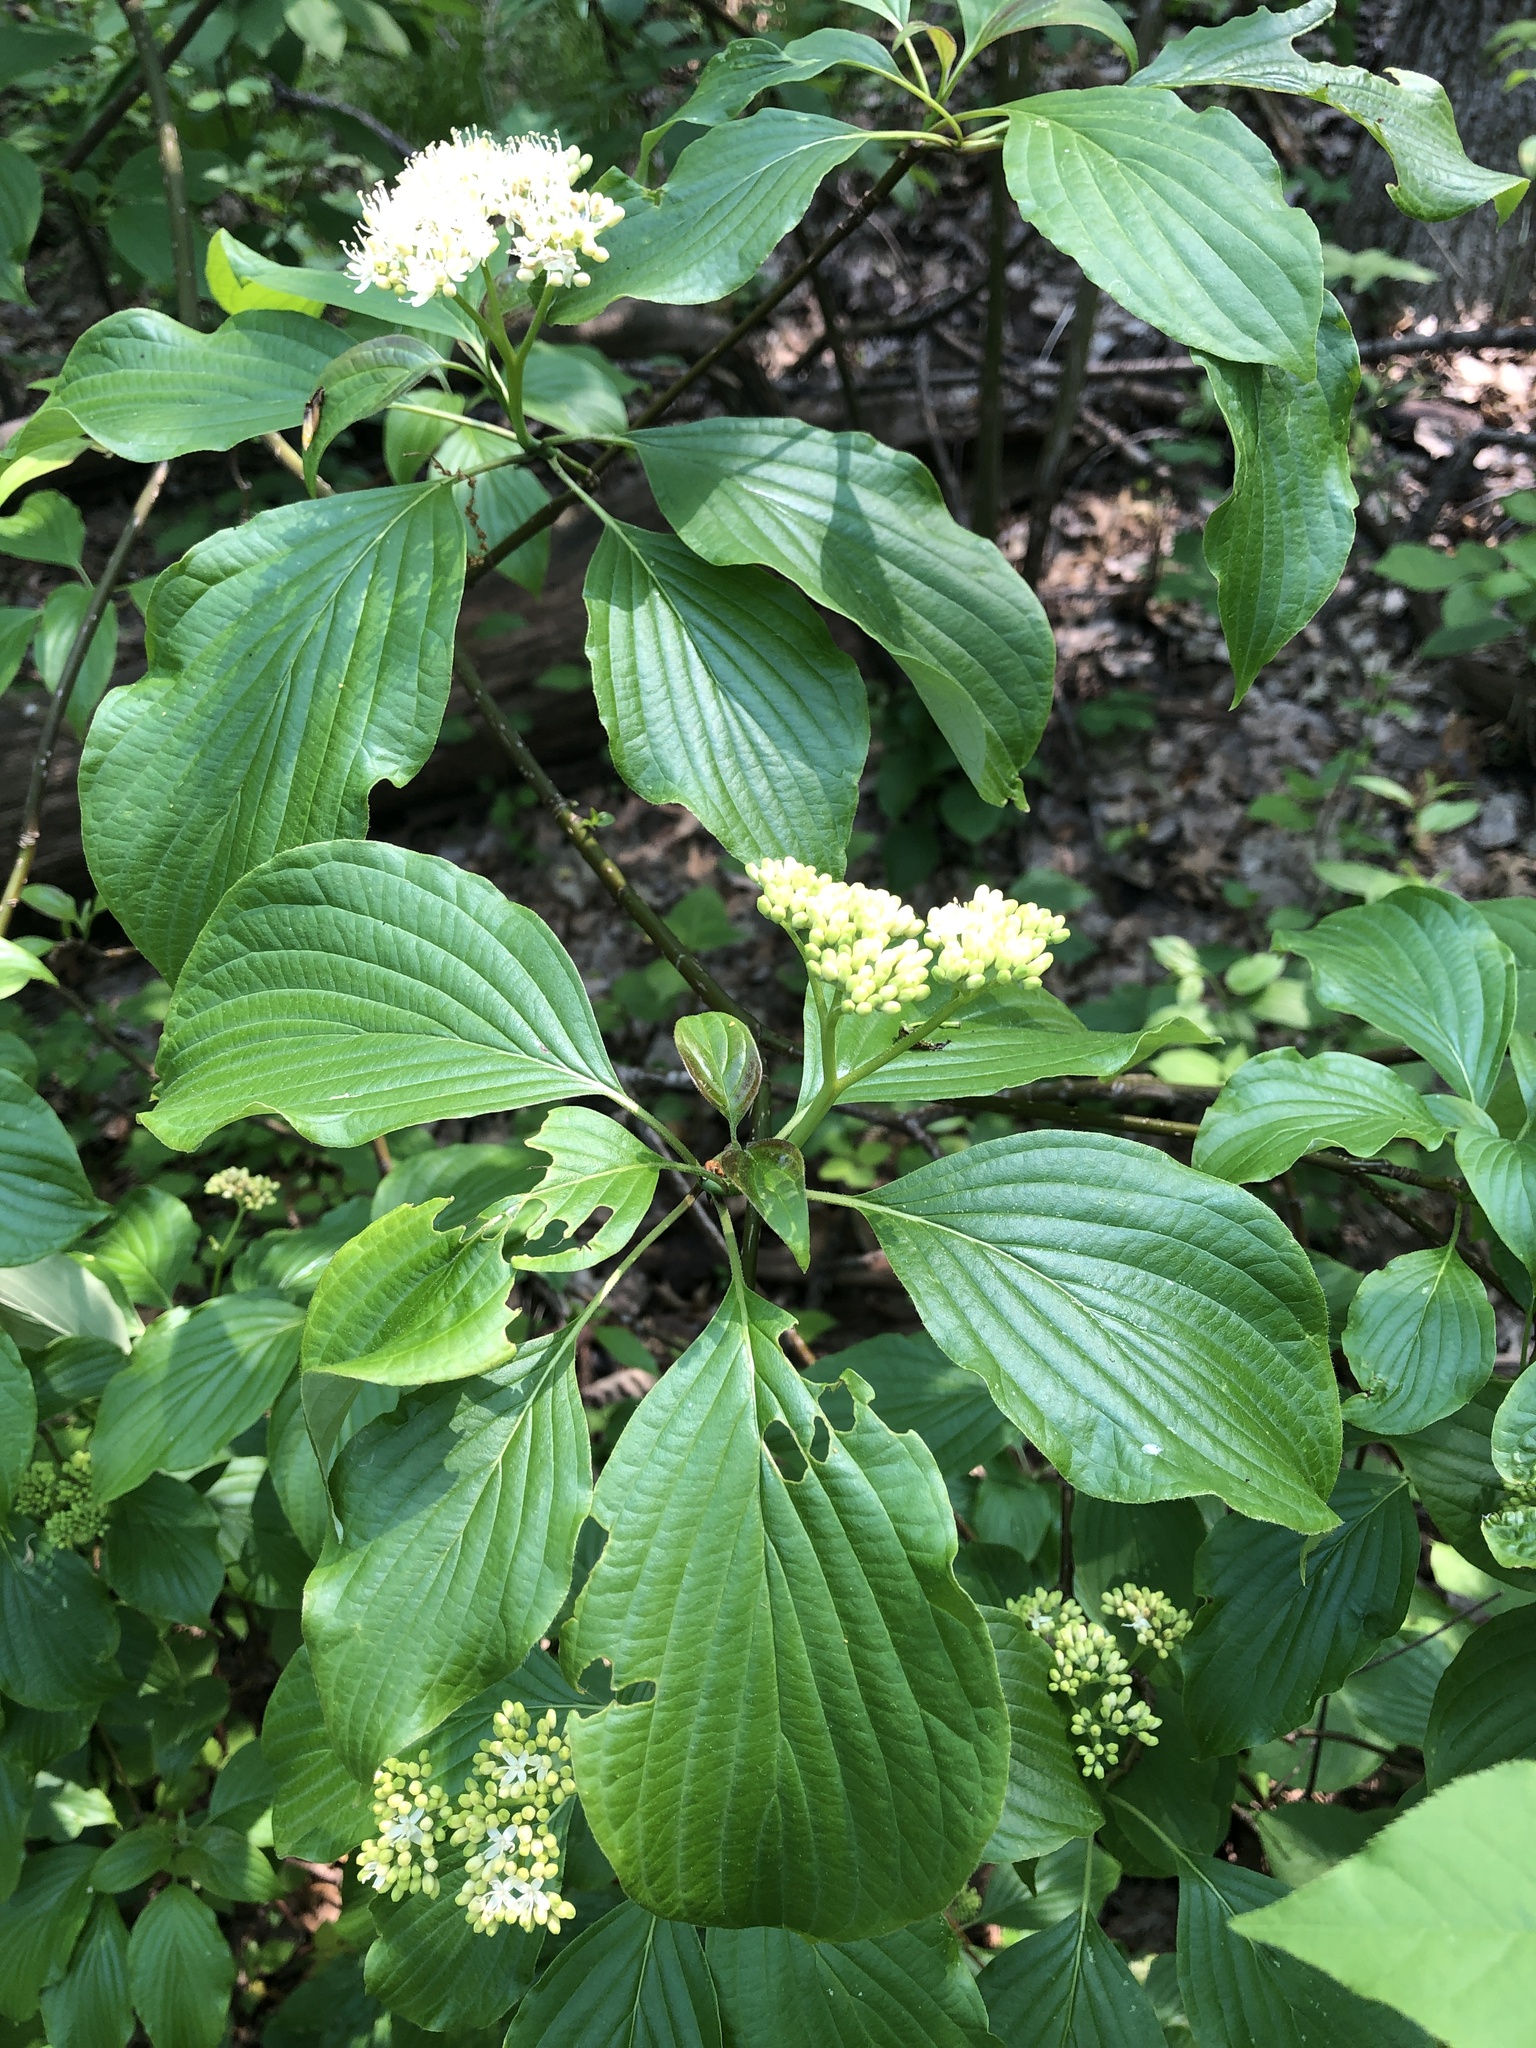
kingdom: Plantae
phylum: Tracheophyta
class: Magnoliopsida
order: Cornales
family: Cornaceae
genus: Cornus
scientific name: Cornus alternifolia
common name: Pagoda dogwood
